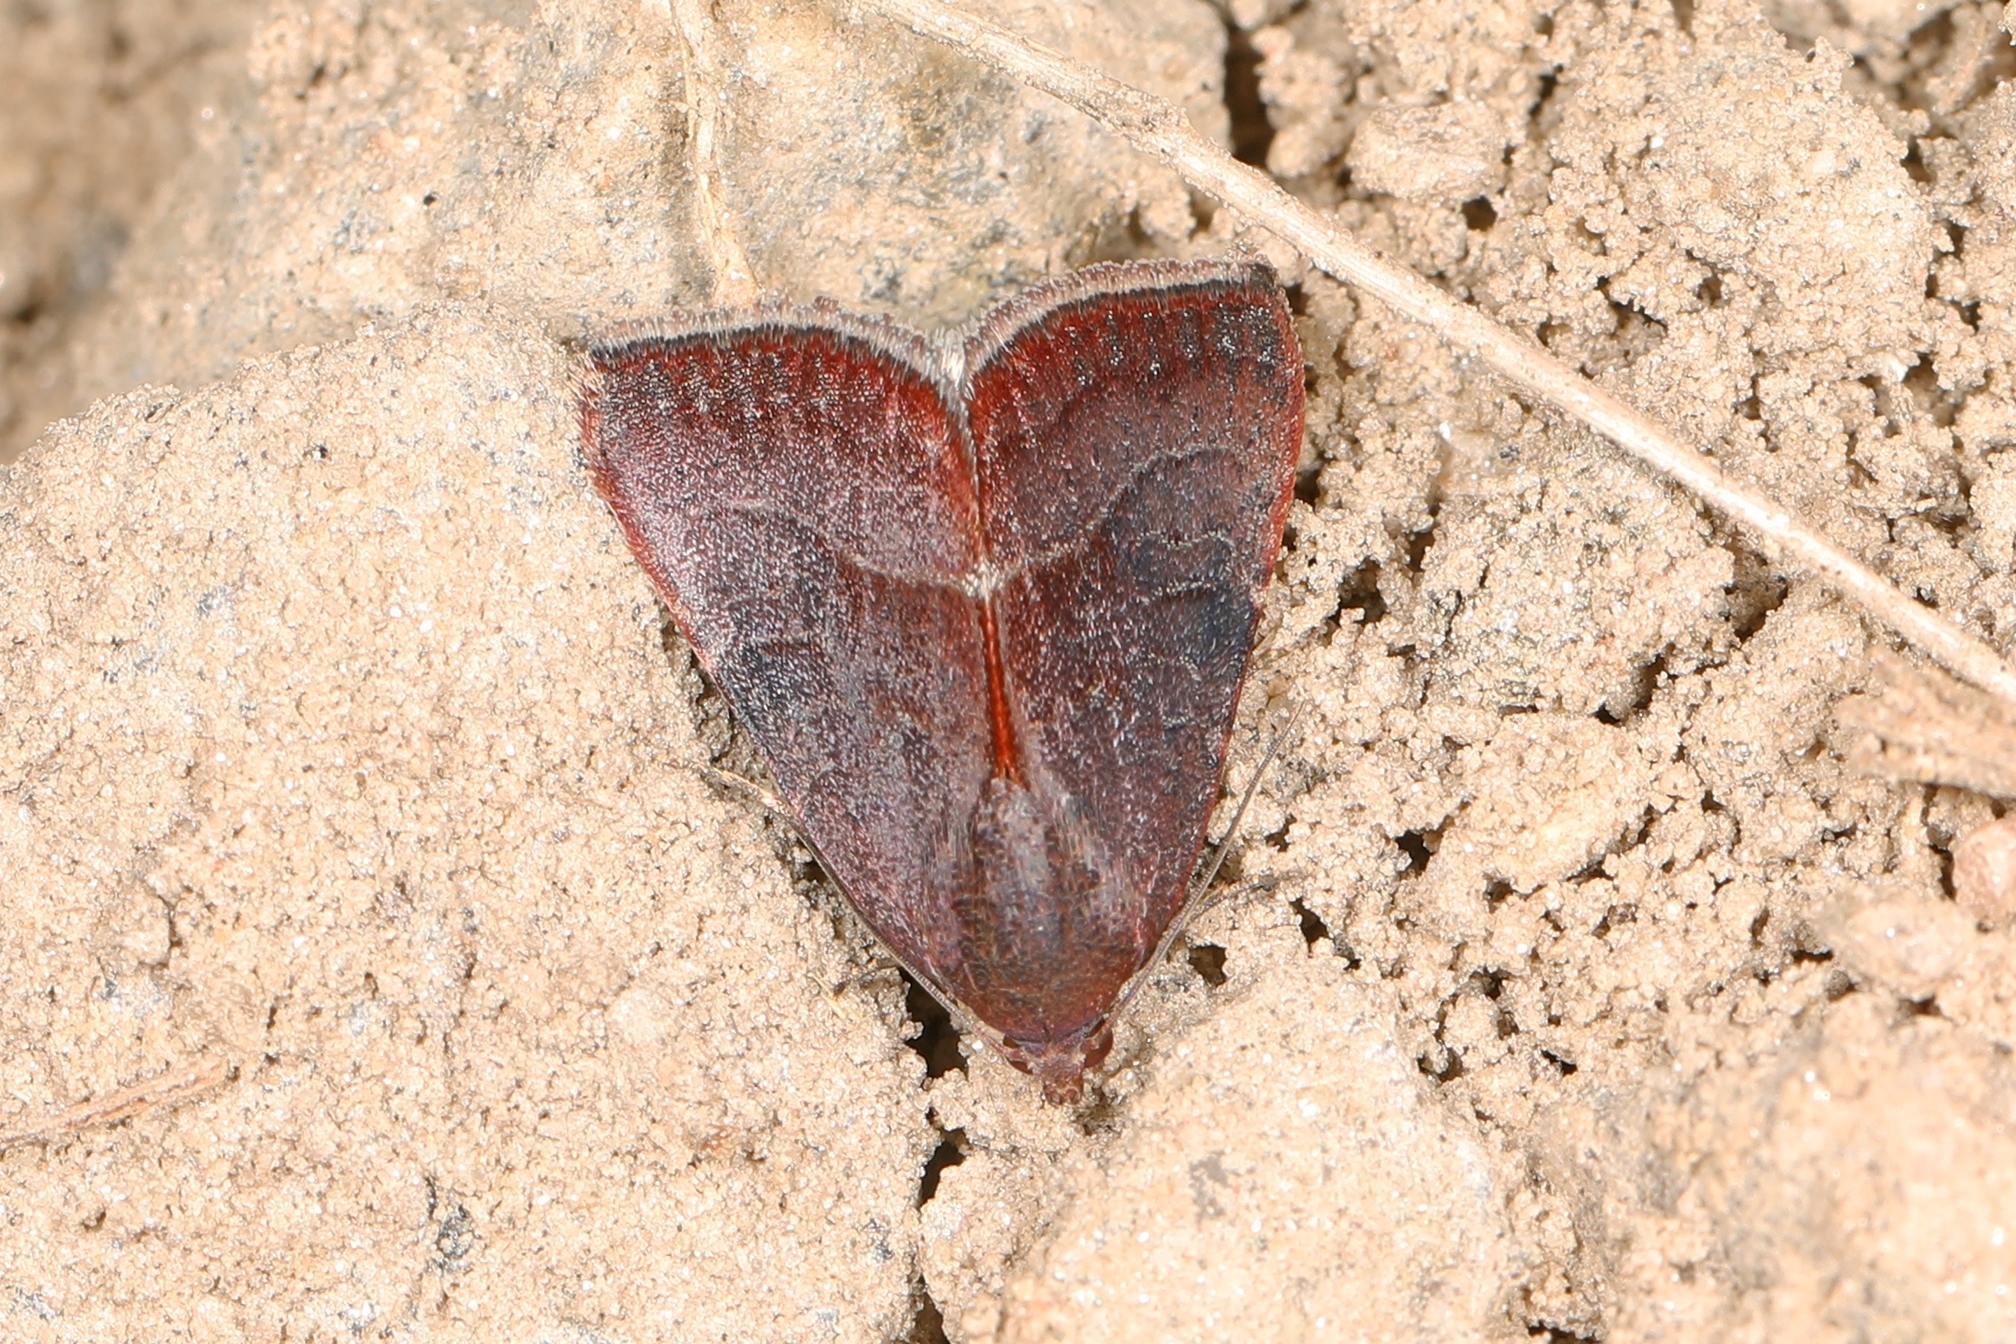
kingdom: Animalia
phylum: Arthropoda
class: Insecta
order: Lepidoptera
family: Noctuidae
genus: Galgula
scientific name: Galgula partita
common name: Wedgeling
